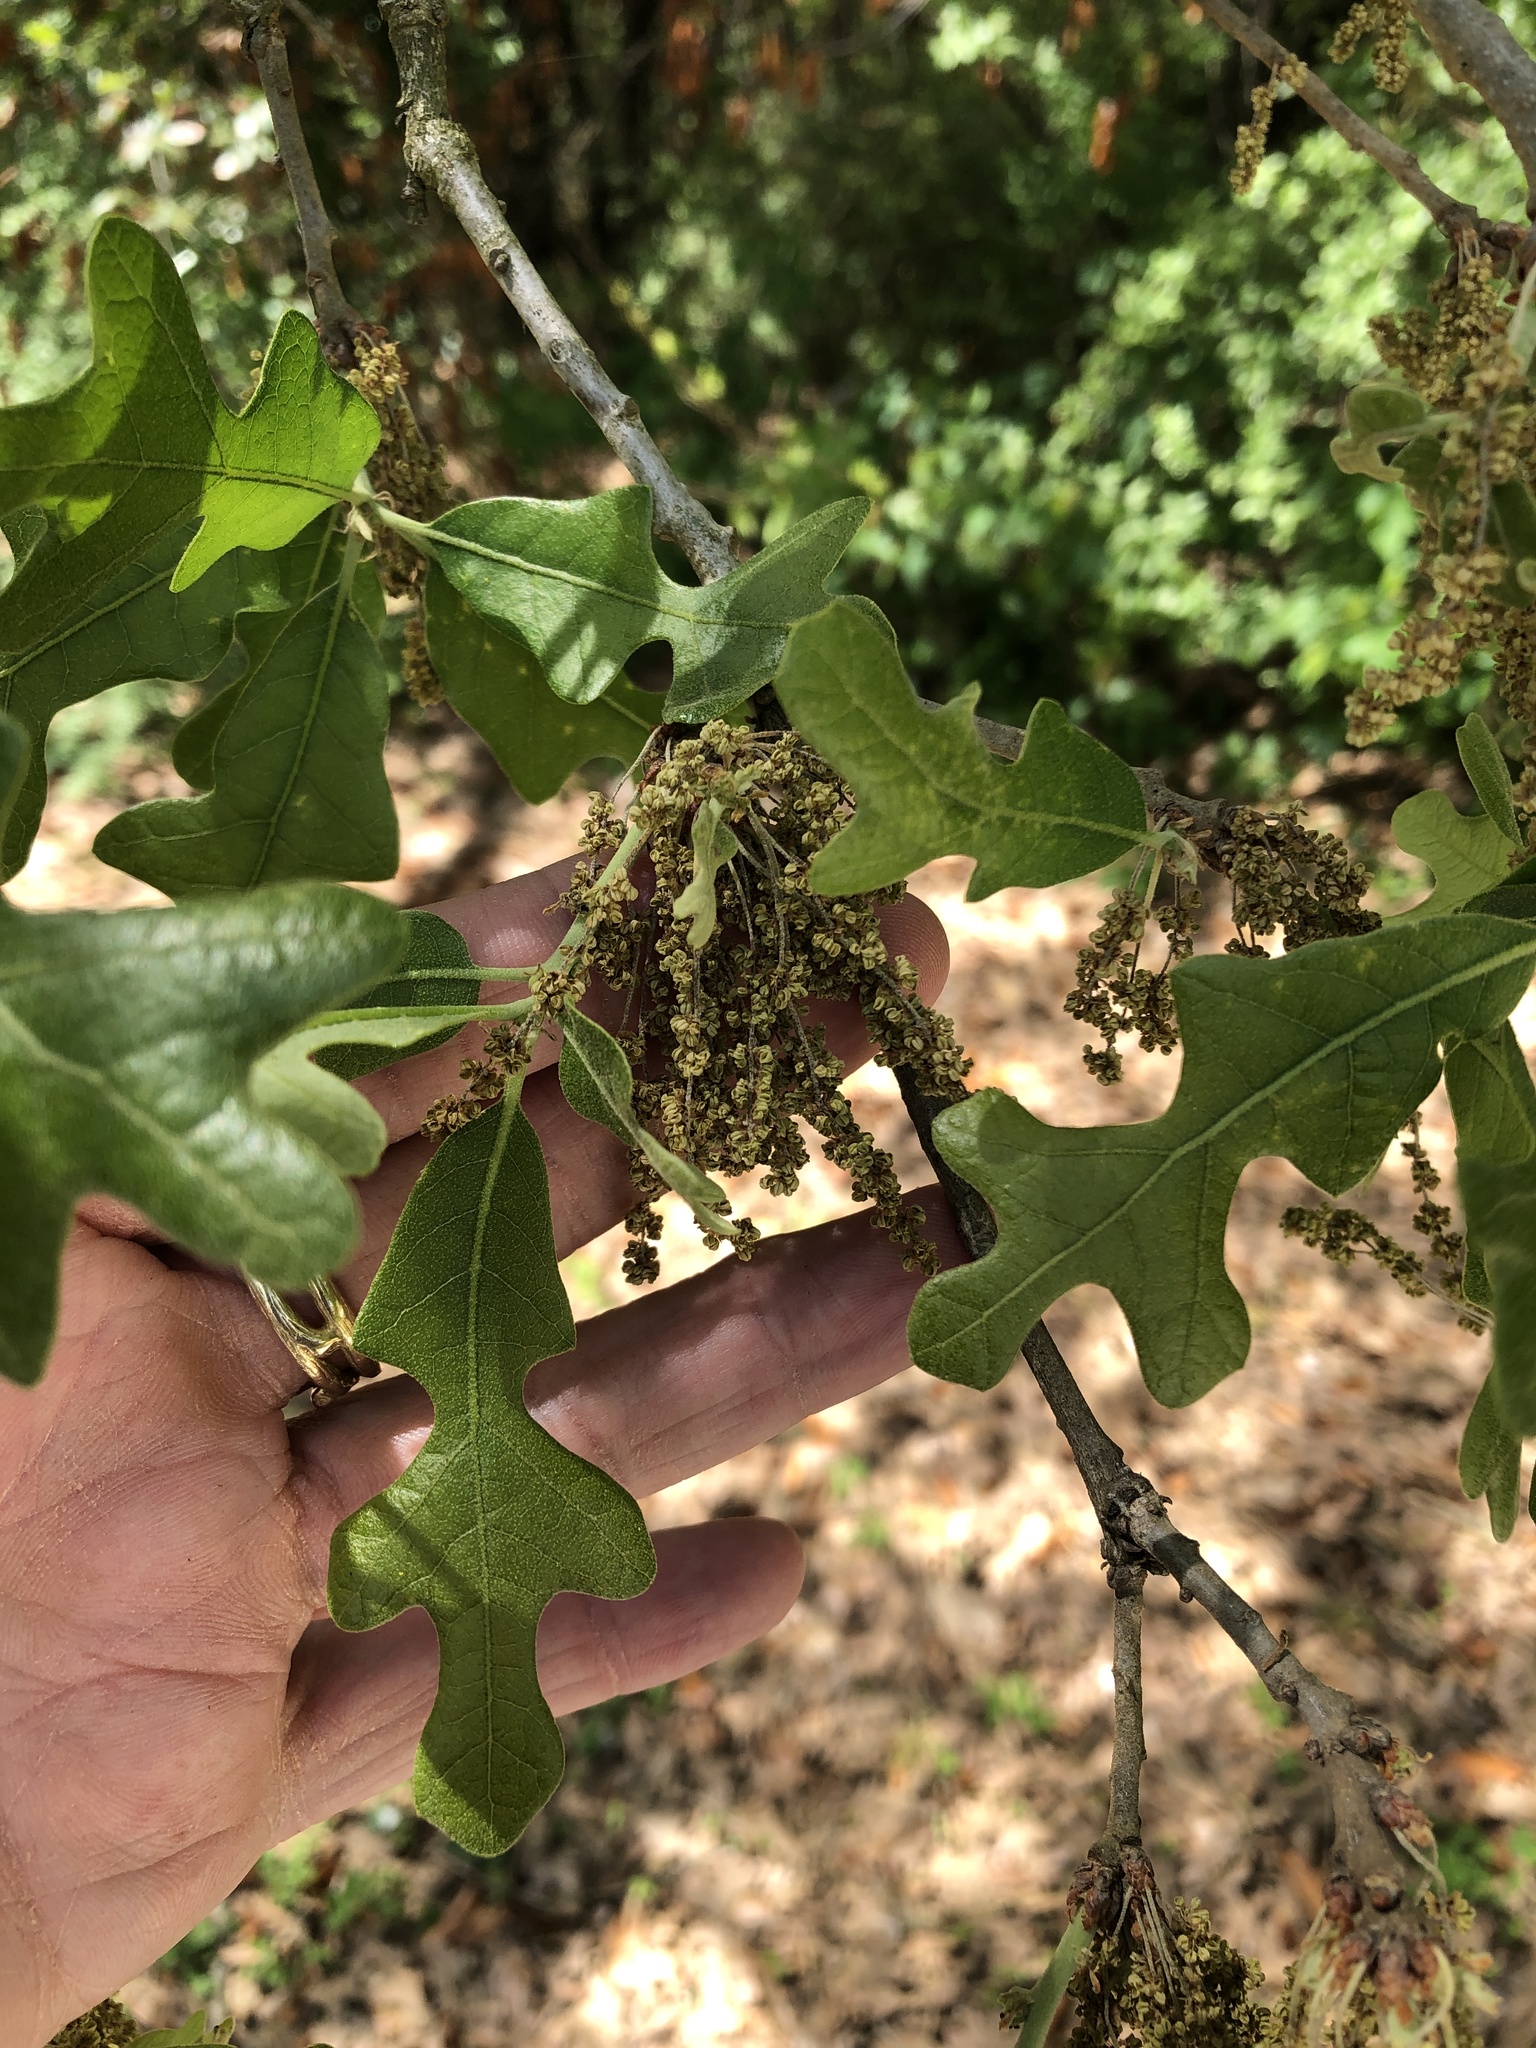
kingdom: Plantae
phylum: Tracheophyta
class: Magnoliopsida
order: Fagales
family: Fagaceae
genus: Quercus
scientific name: Quercus stellata
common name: Post oak
